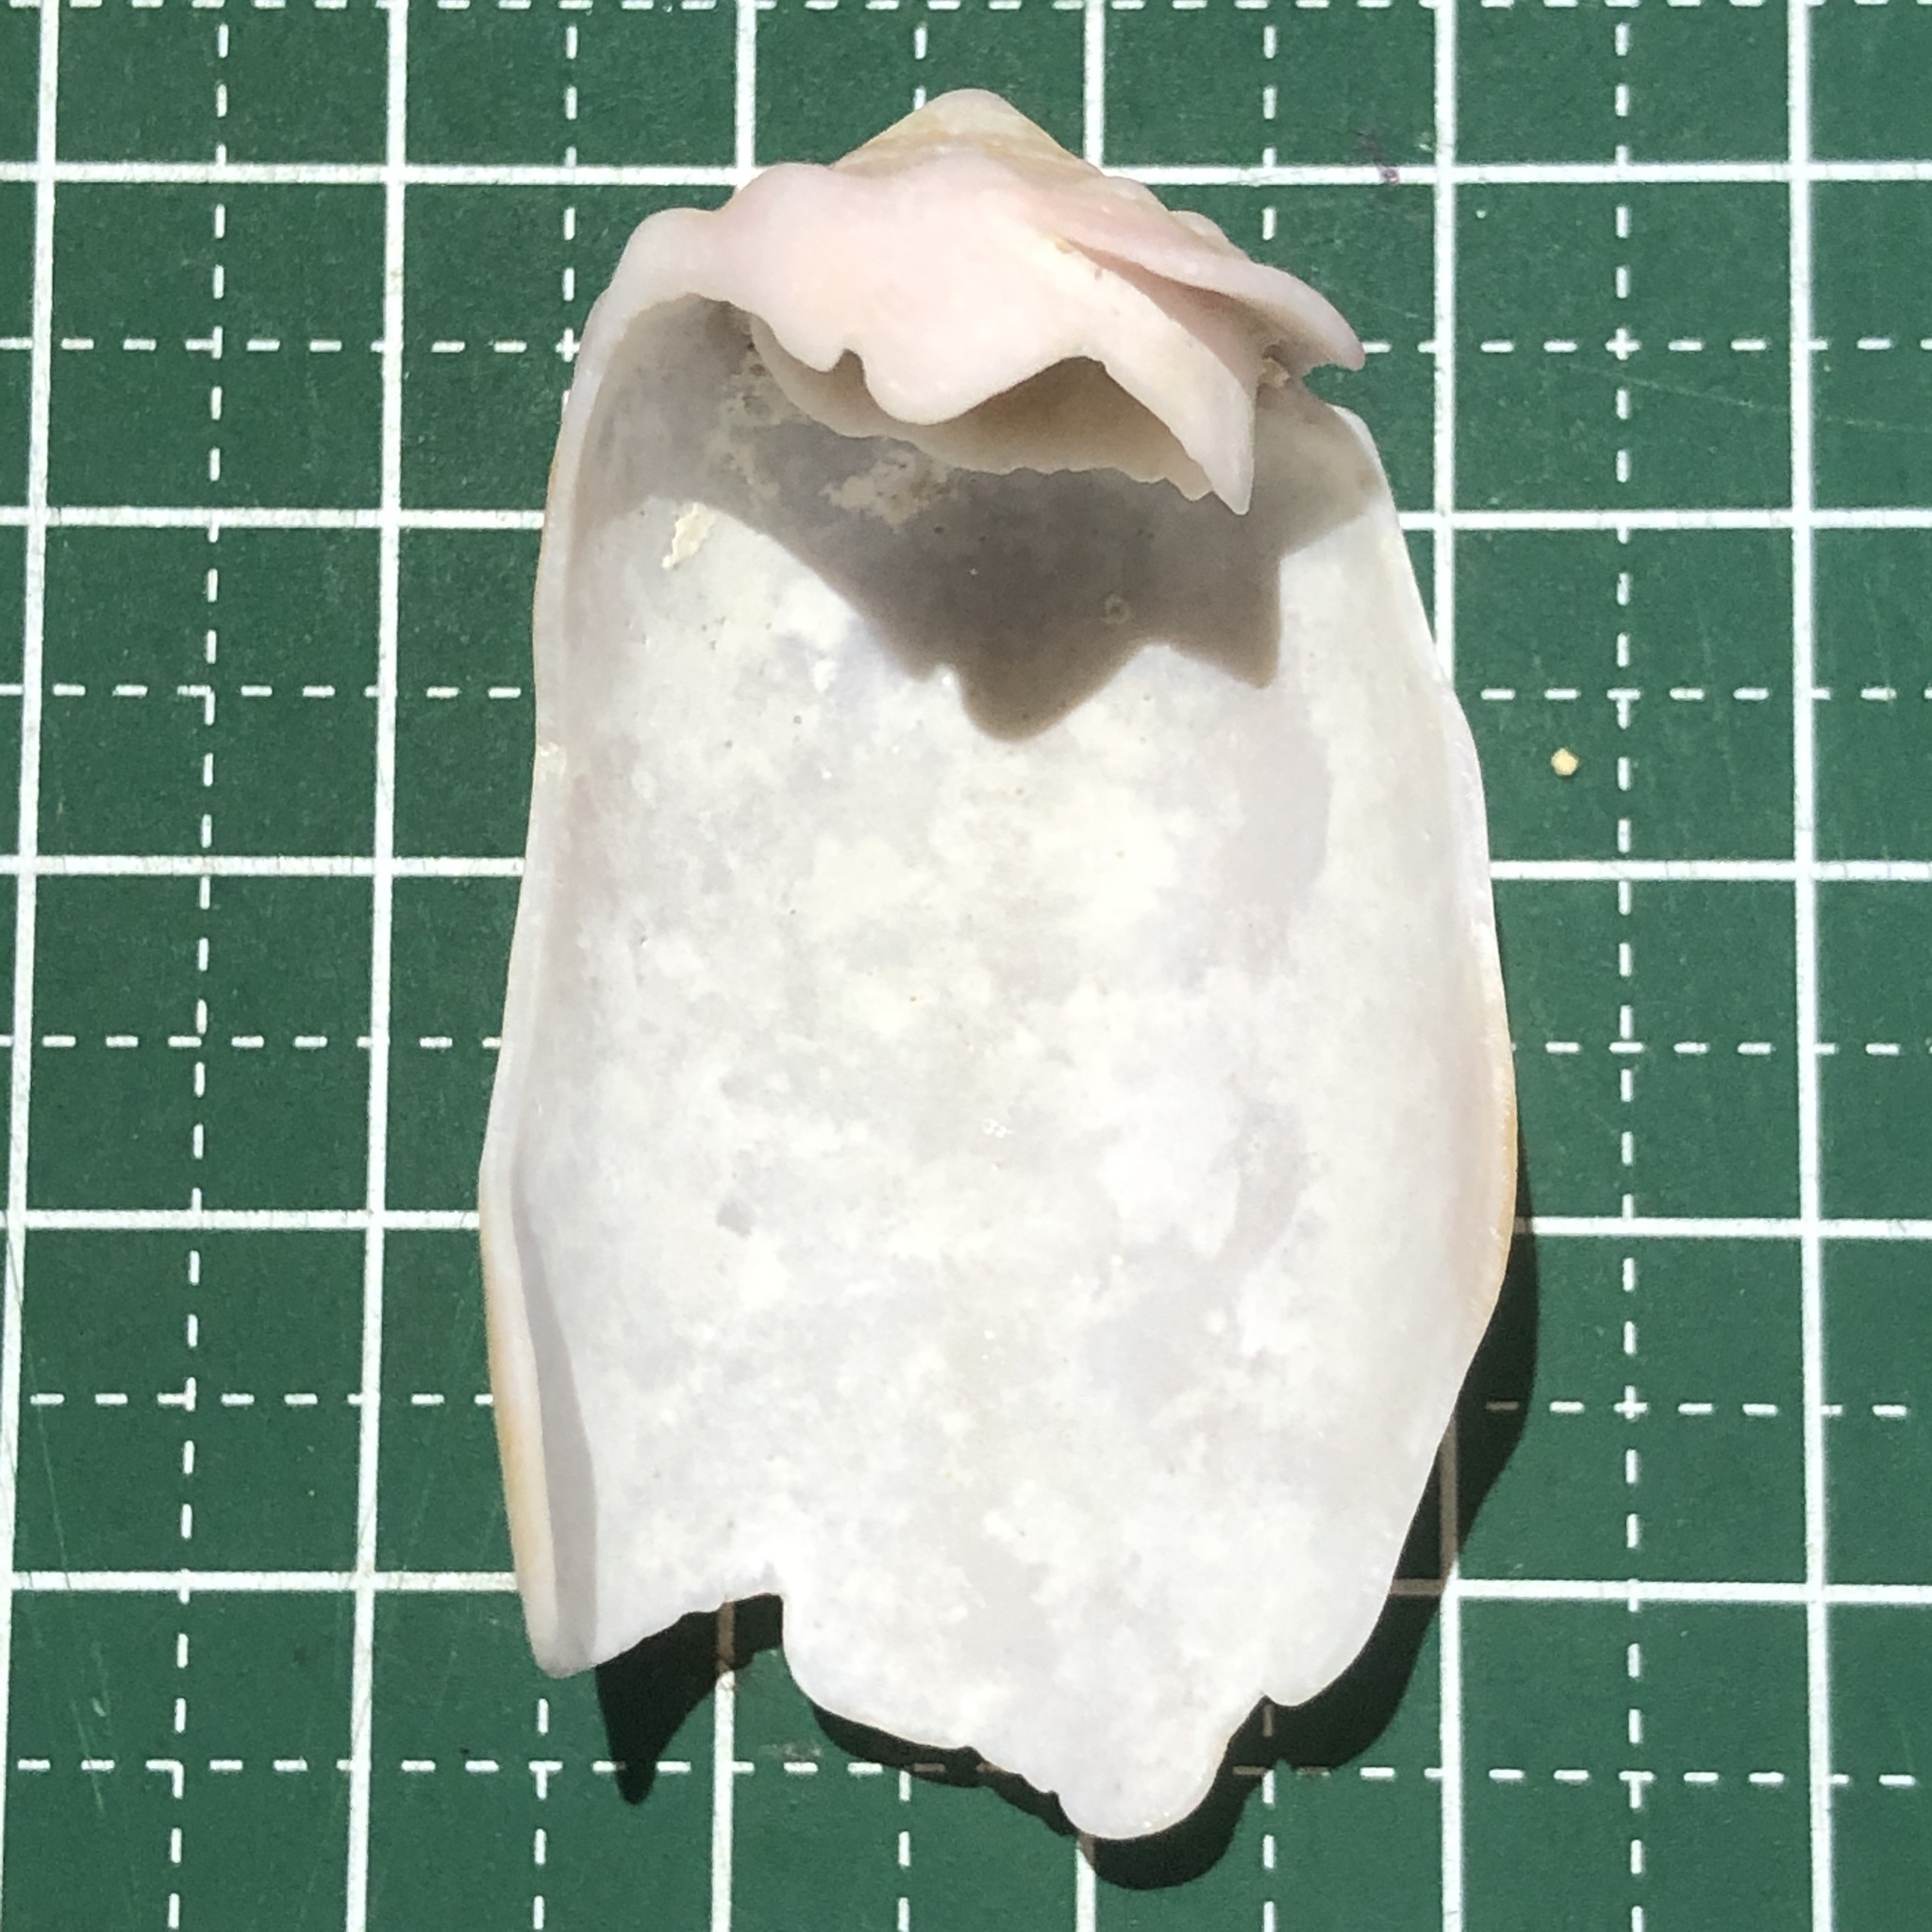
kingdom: Animalia
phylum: Mollusca
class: Gastropoda
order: Neogastropoda
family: Conidae
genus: Conus
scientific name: Conus geographus
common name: Geographer cone
